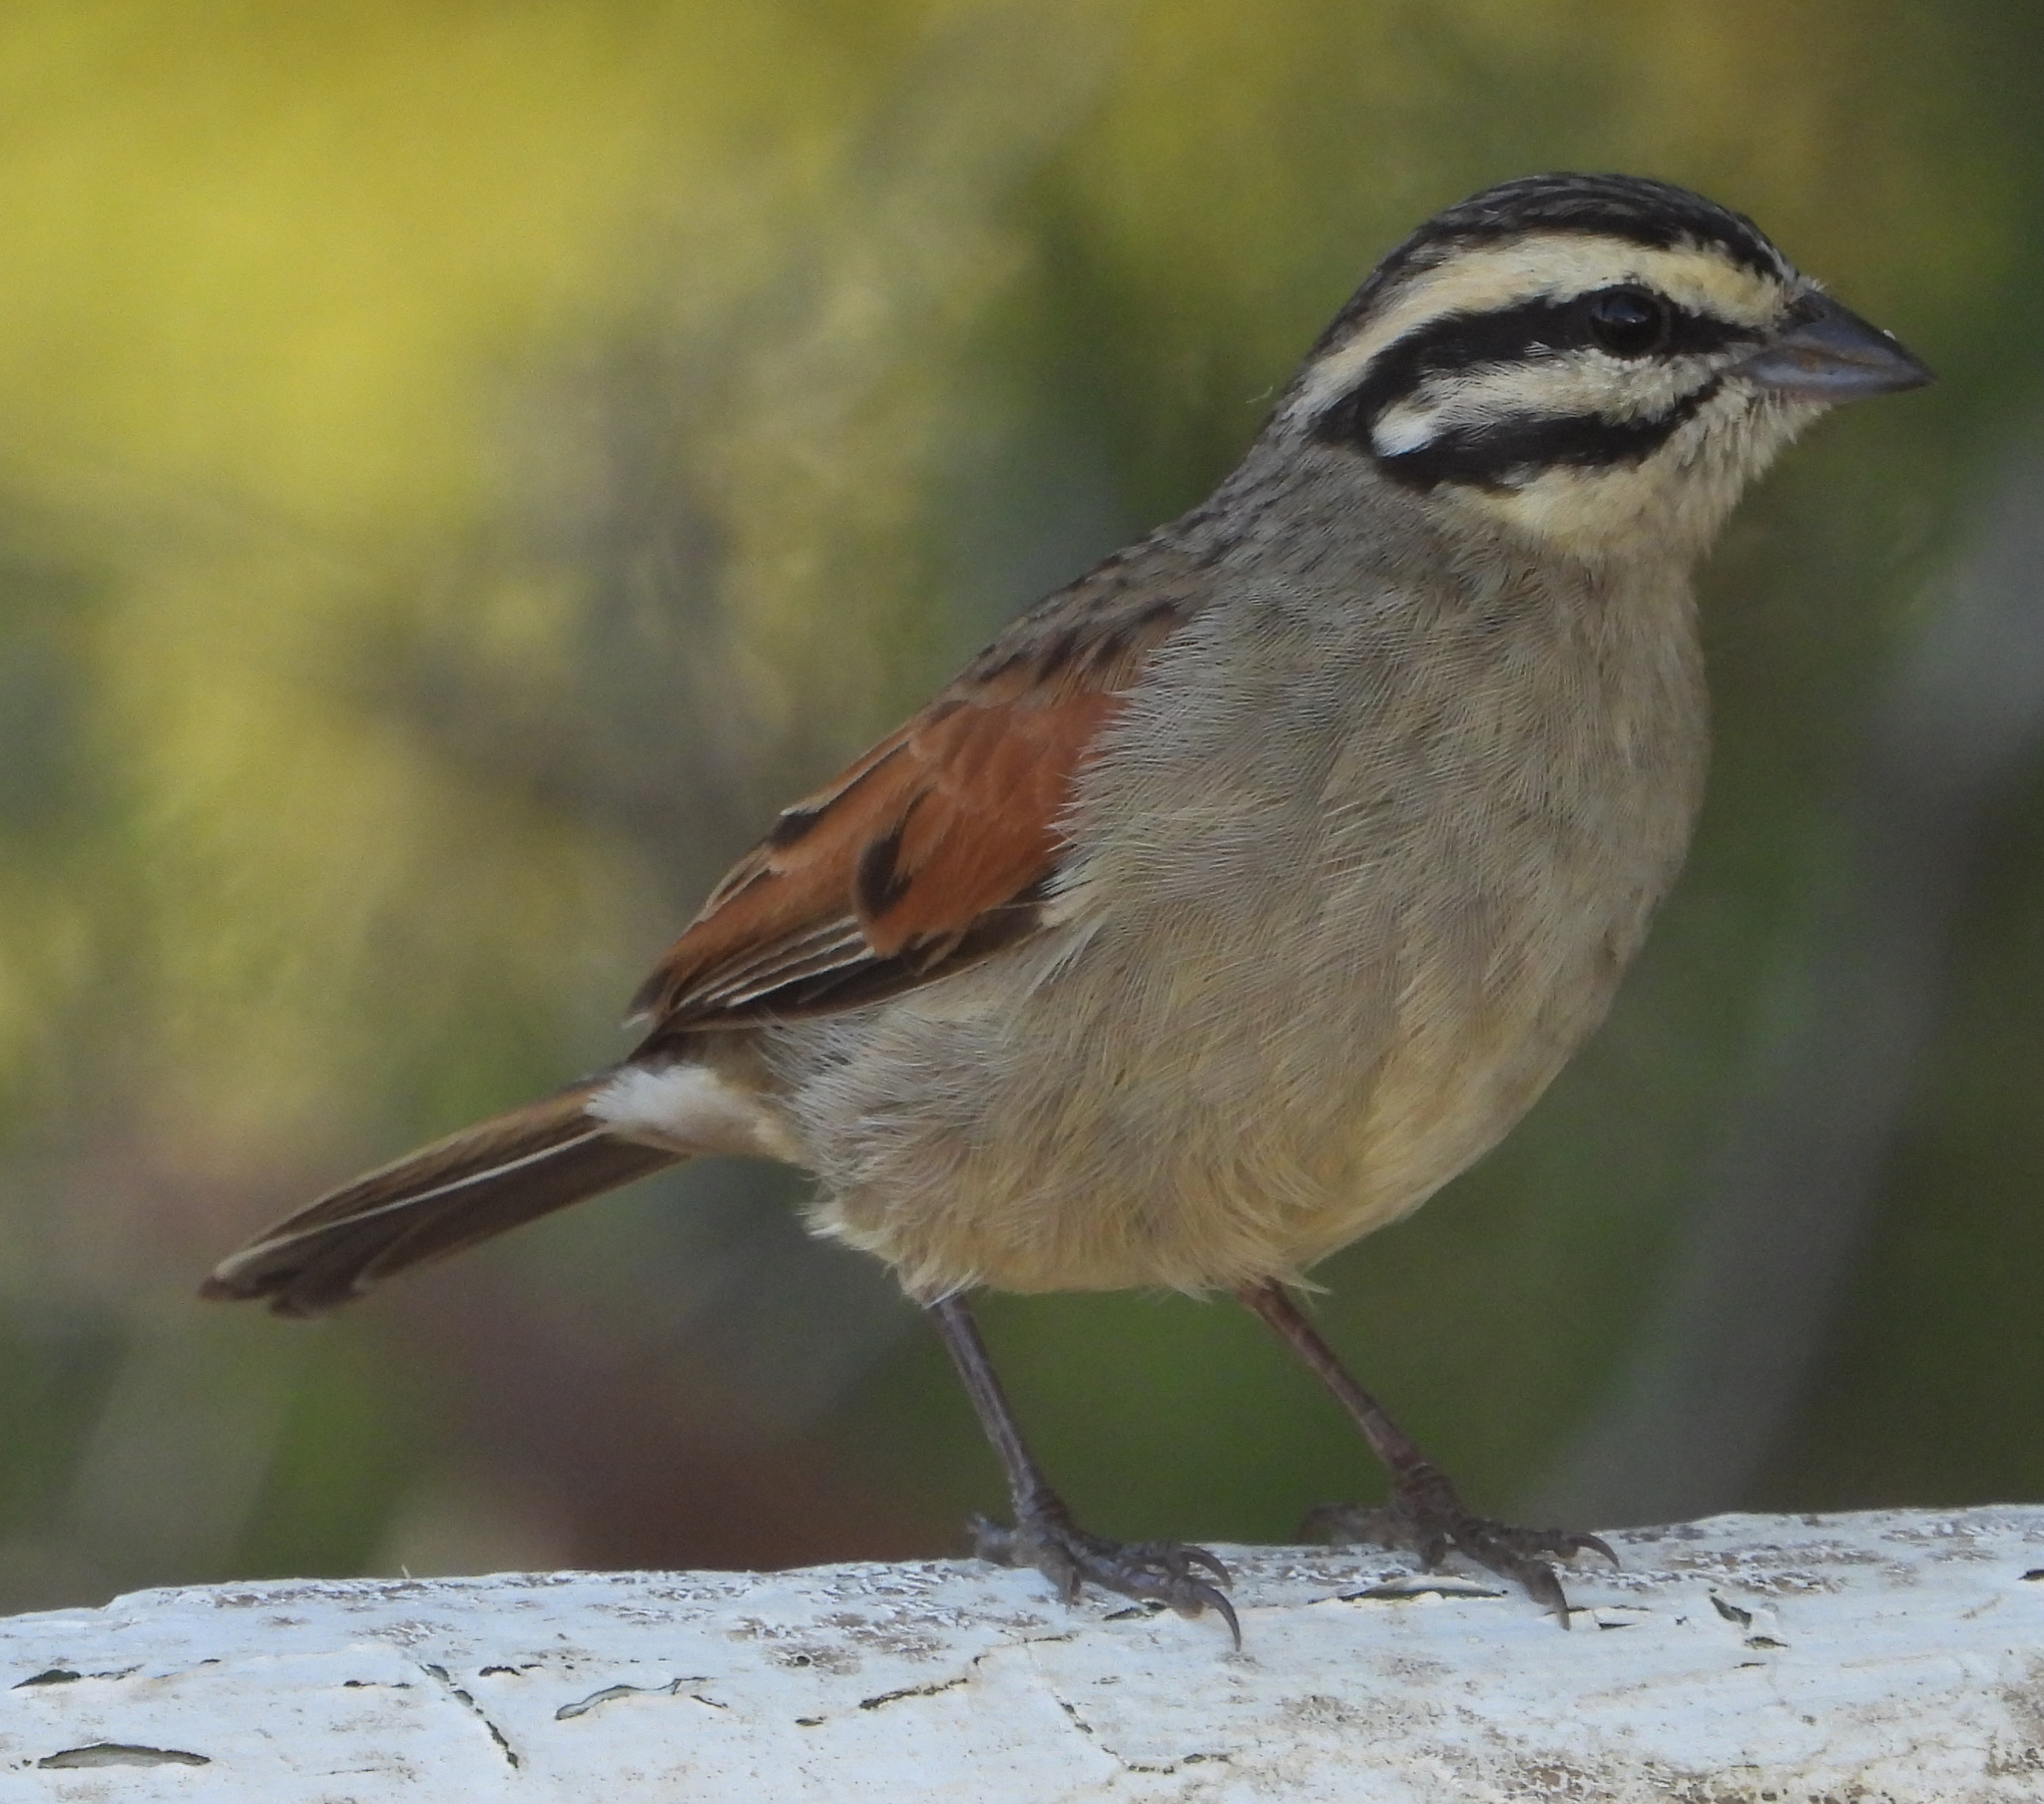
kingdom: Animalia
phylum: Chordata
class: Aves
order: Passeriformes
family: Emberizidae
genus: Emberiza
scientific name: Emberiza capensis
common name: Cape bunting
